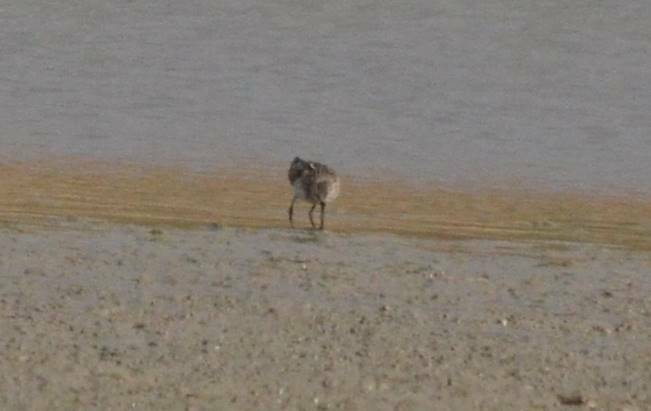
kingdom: Animalia
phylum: Chordata
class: Aves
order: Charadriiformes
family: Scolopacidae
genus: Calidris
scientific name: Calidris ferruginea
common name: Curlew sandpiper
